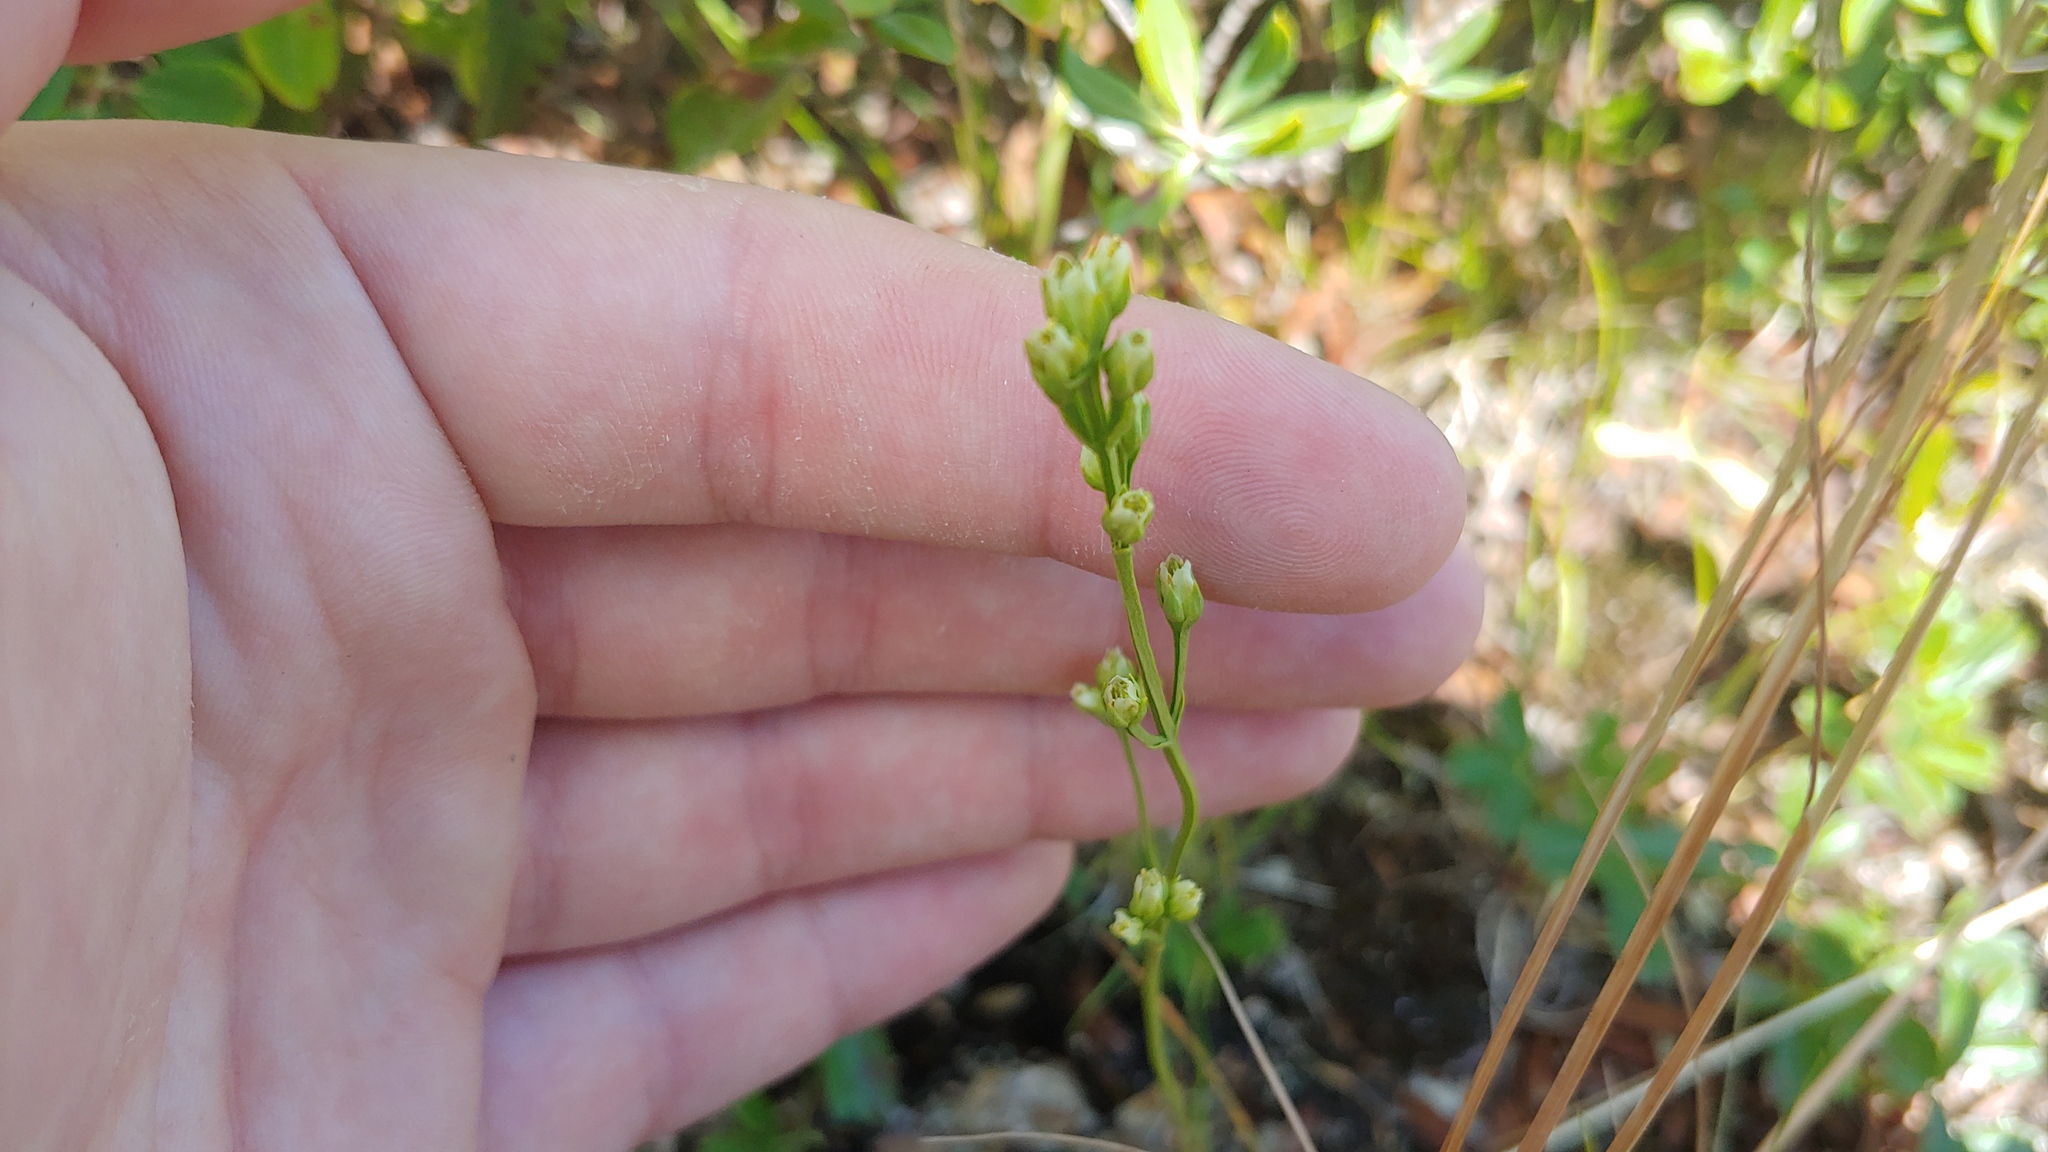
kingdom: Plantae
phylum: Tracheophyta
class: Magnoliopsida
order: Gentianales
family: Gentianaceae
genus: Bartonia
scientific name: Bartonia virginica
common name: Yellow bartonia
